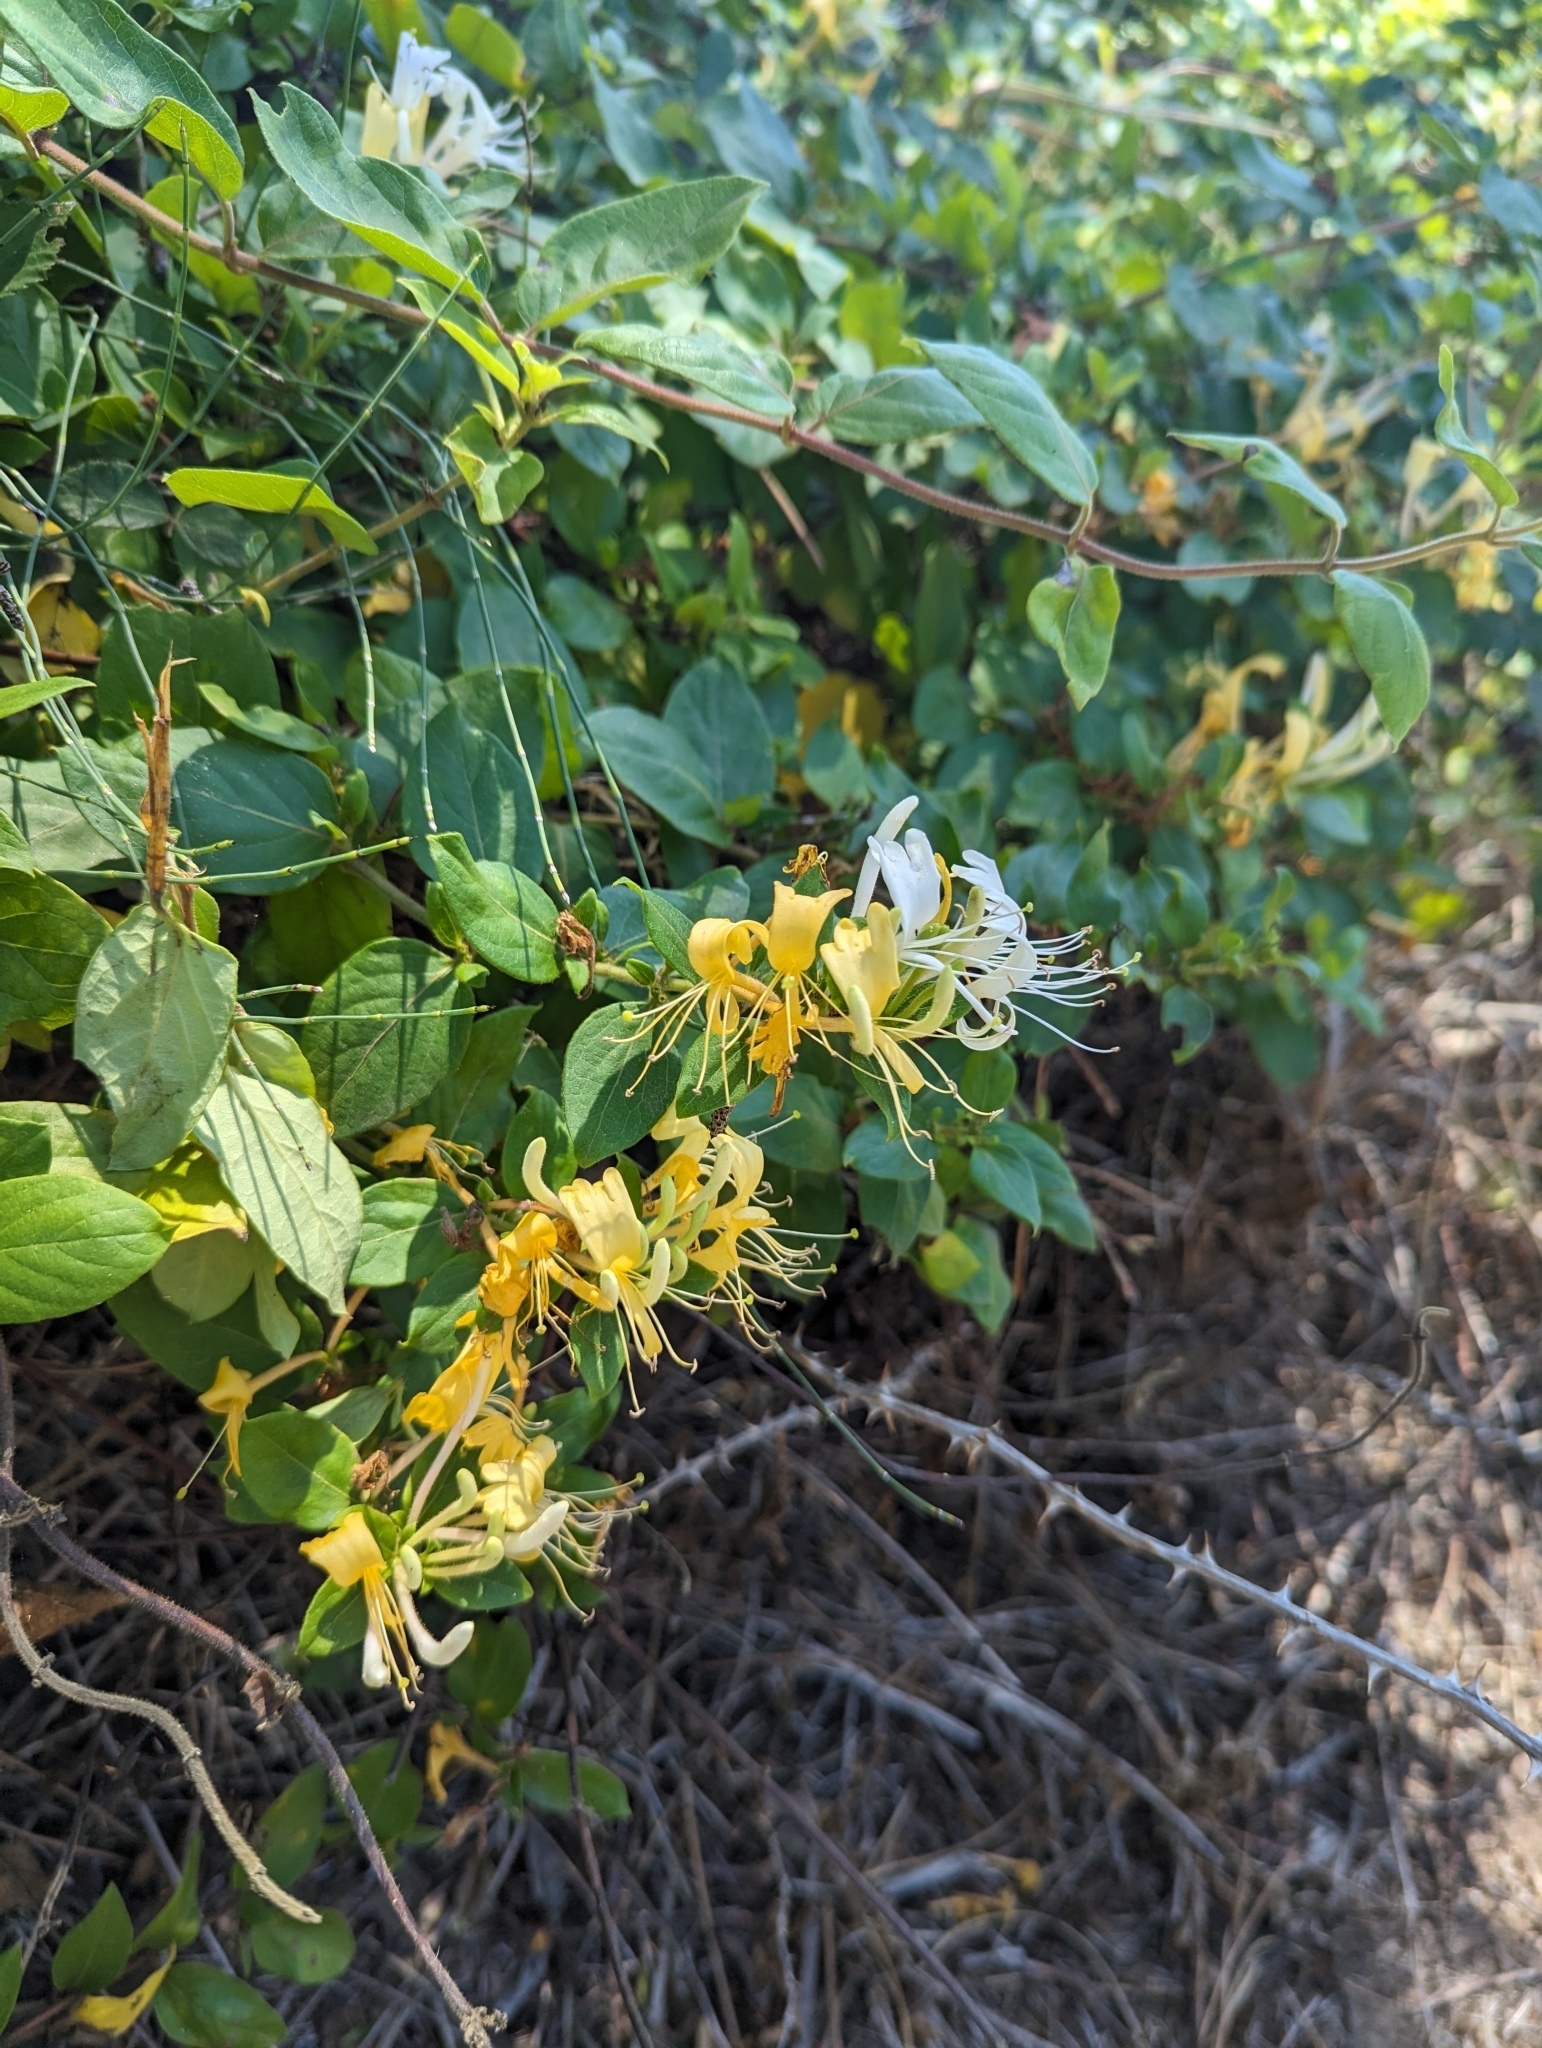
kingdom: Plantae
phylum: Tracheophyta
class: Magnoliopsida
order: Dipsacales
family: Caprifoliaceae
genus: Lonicera
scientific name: Lonicera japonica
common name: Japanese honeysuckle
